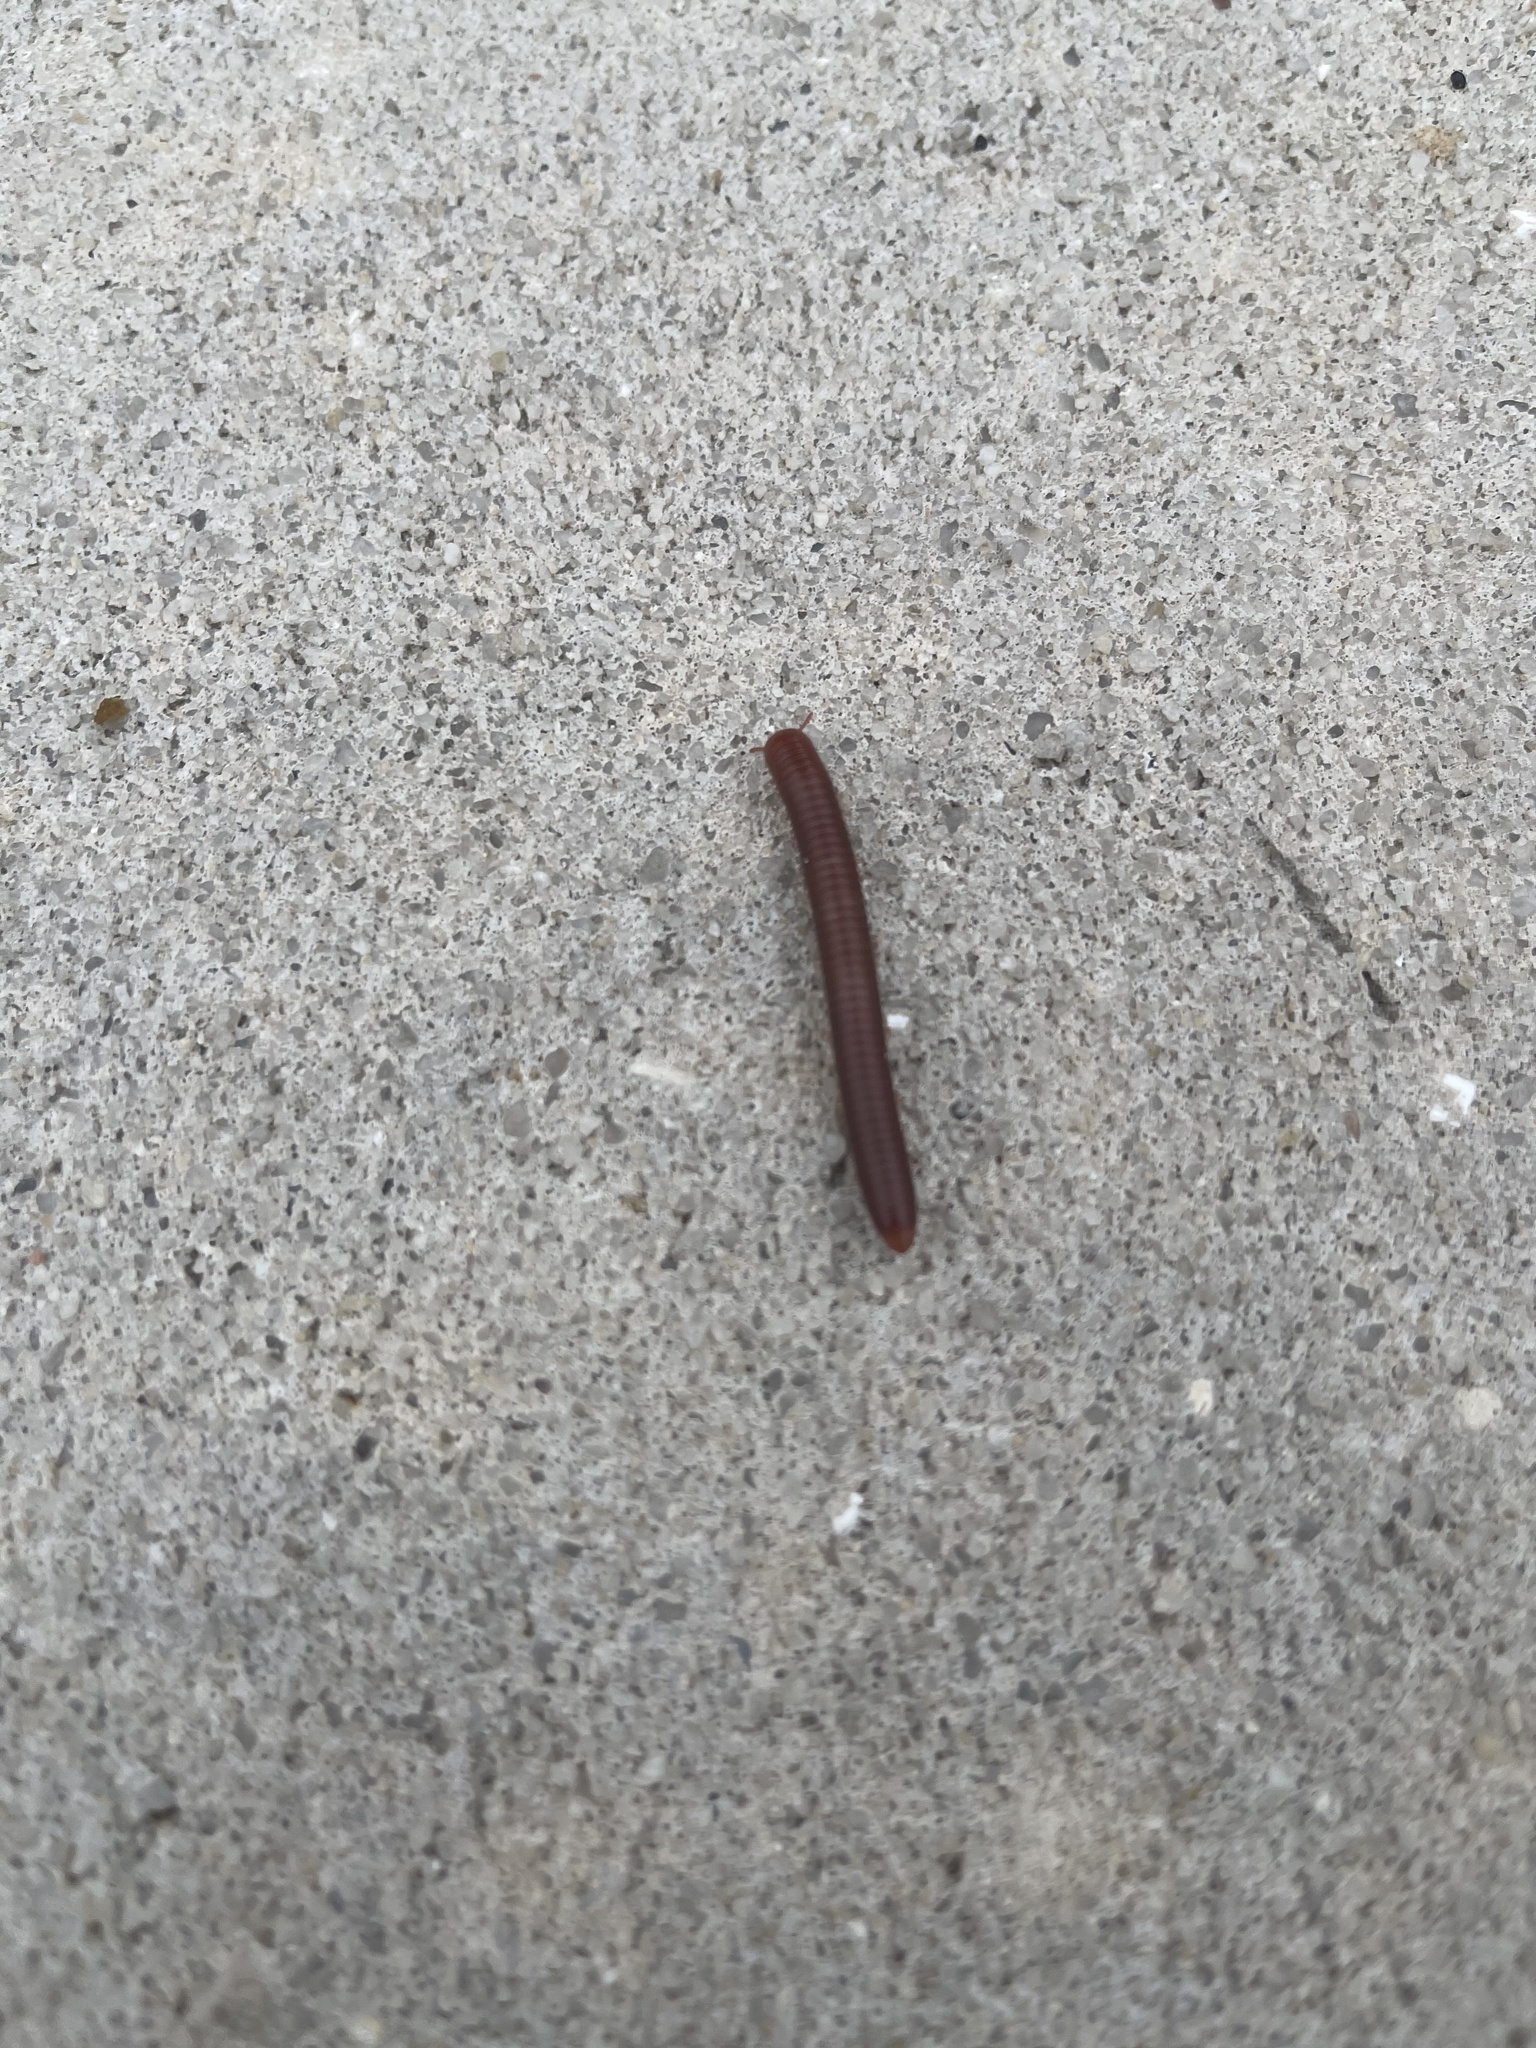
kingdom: Animalia
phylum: Arthropoda
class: Diplopoda
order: Spirobolida
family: Pachybolidae
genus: Trigoniulus
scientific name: Trigoniulus corallinus
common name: Millipede
